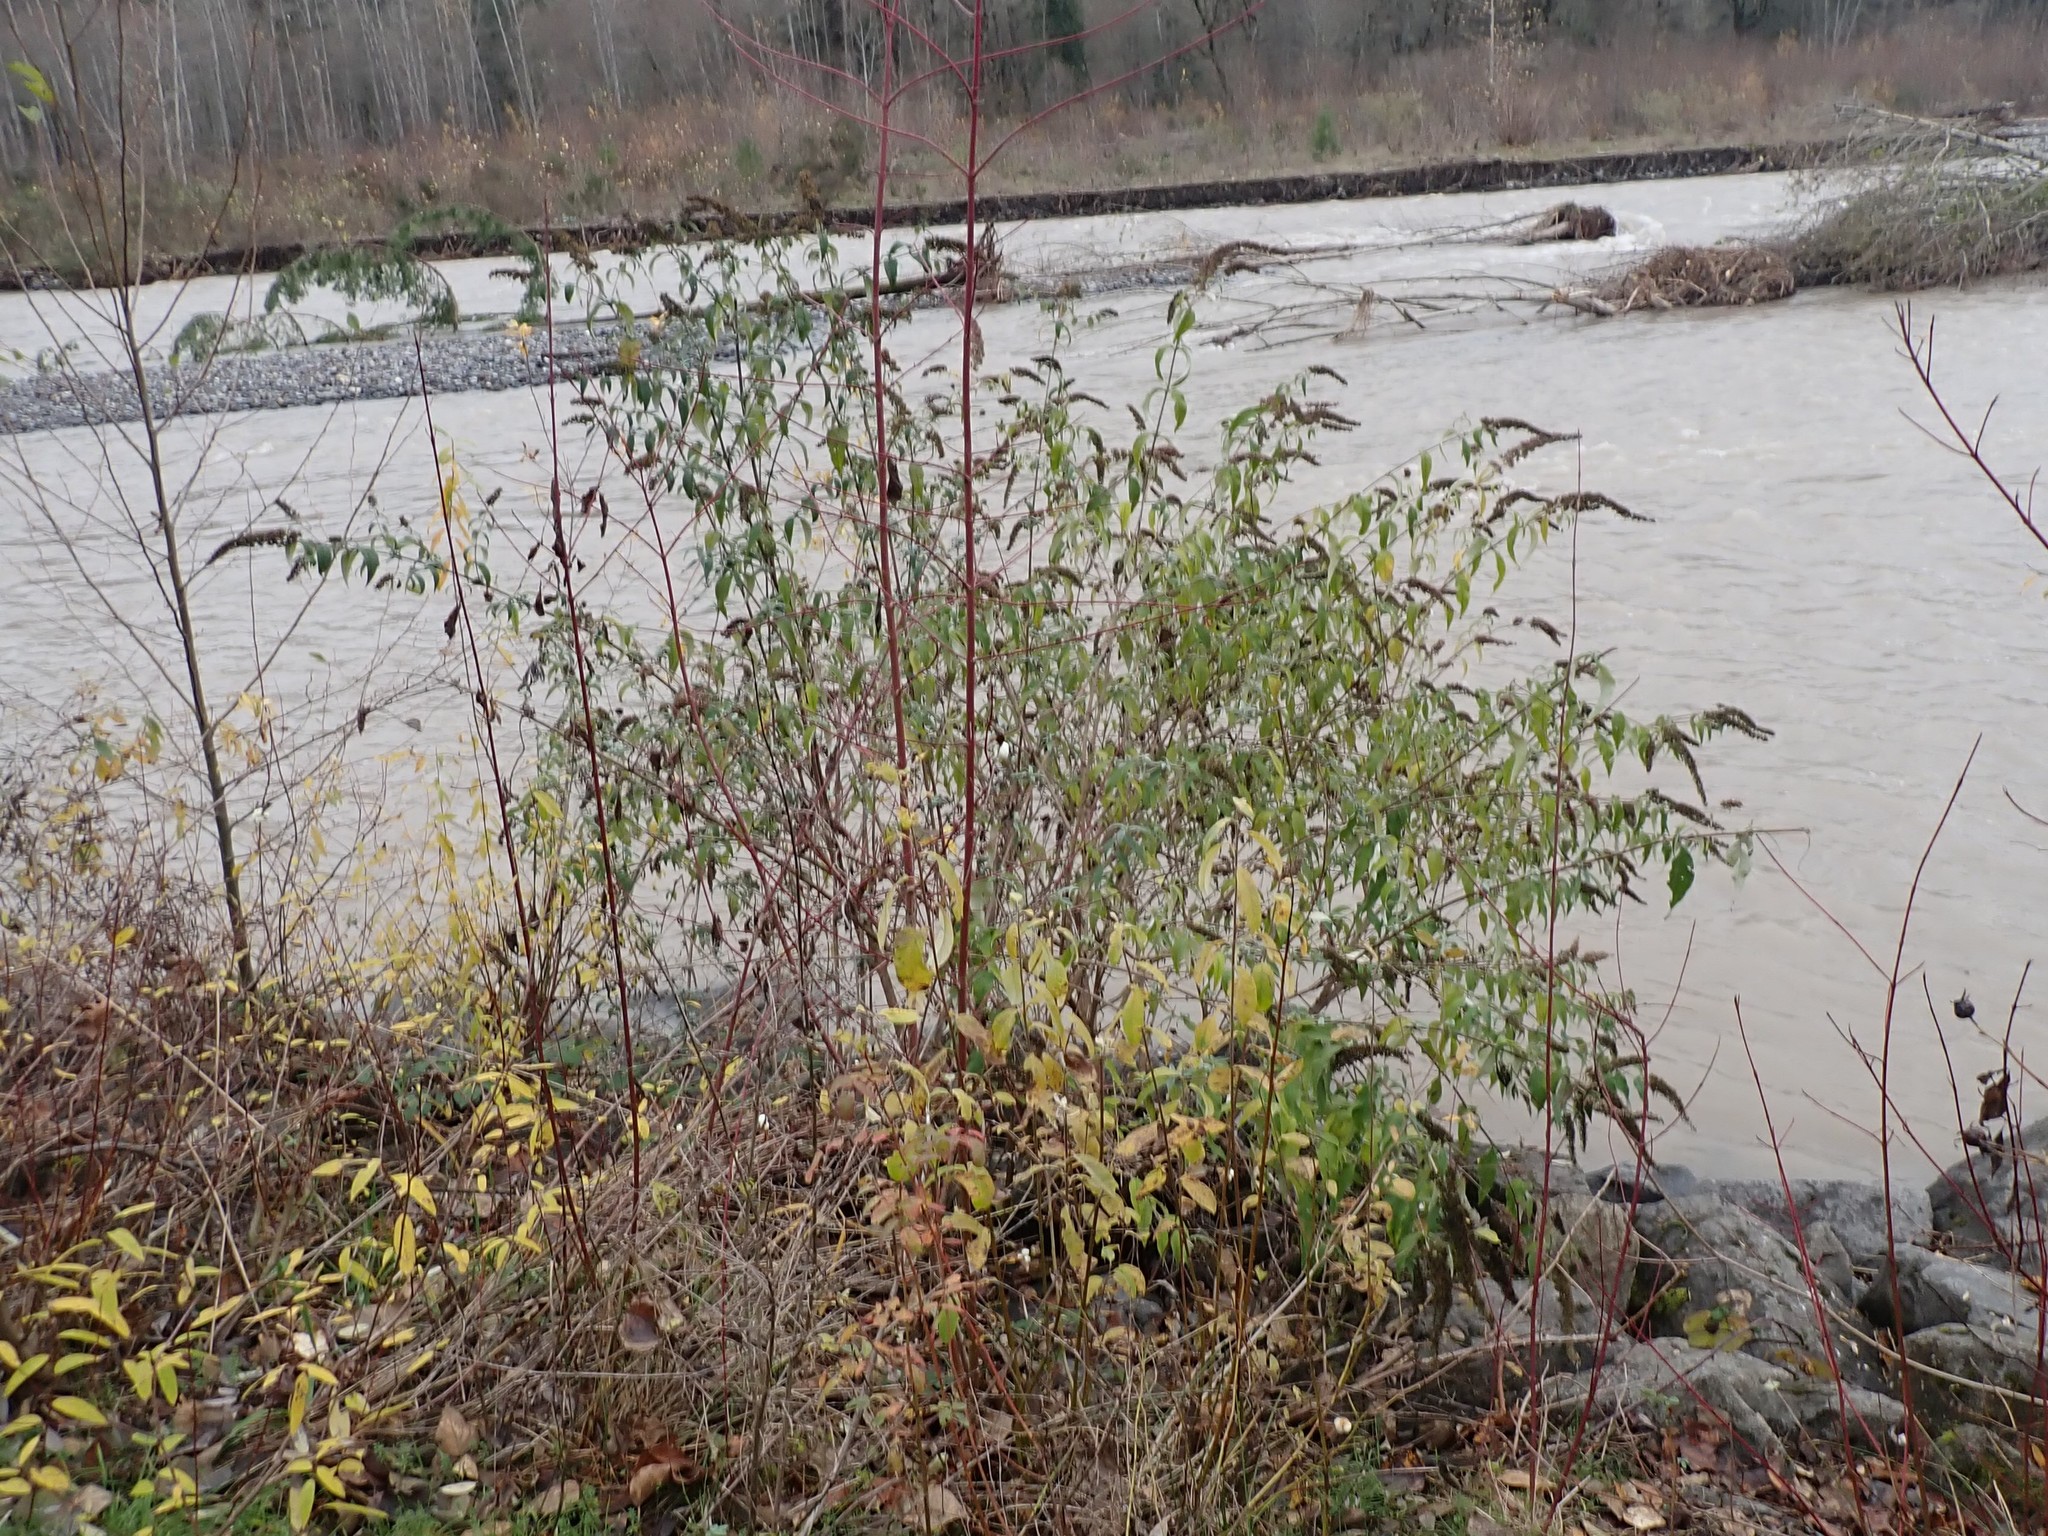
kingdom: Plantae
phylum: Tracheophyta
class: Magnoliopsida
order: Lamiales
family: Scrophulariaceae
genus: Buddleja
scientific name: Buddleja davidii
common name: Butterfly-bush
